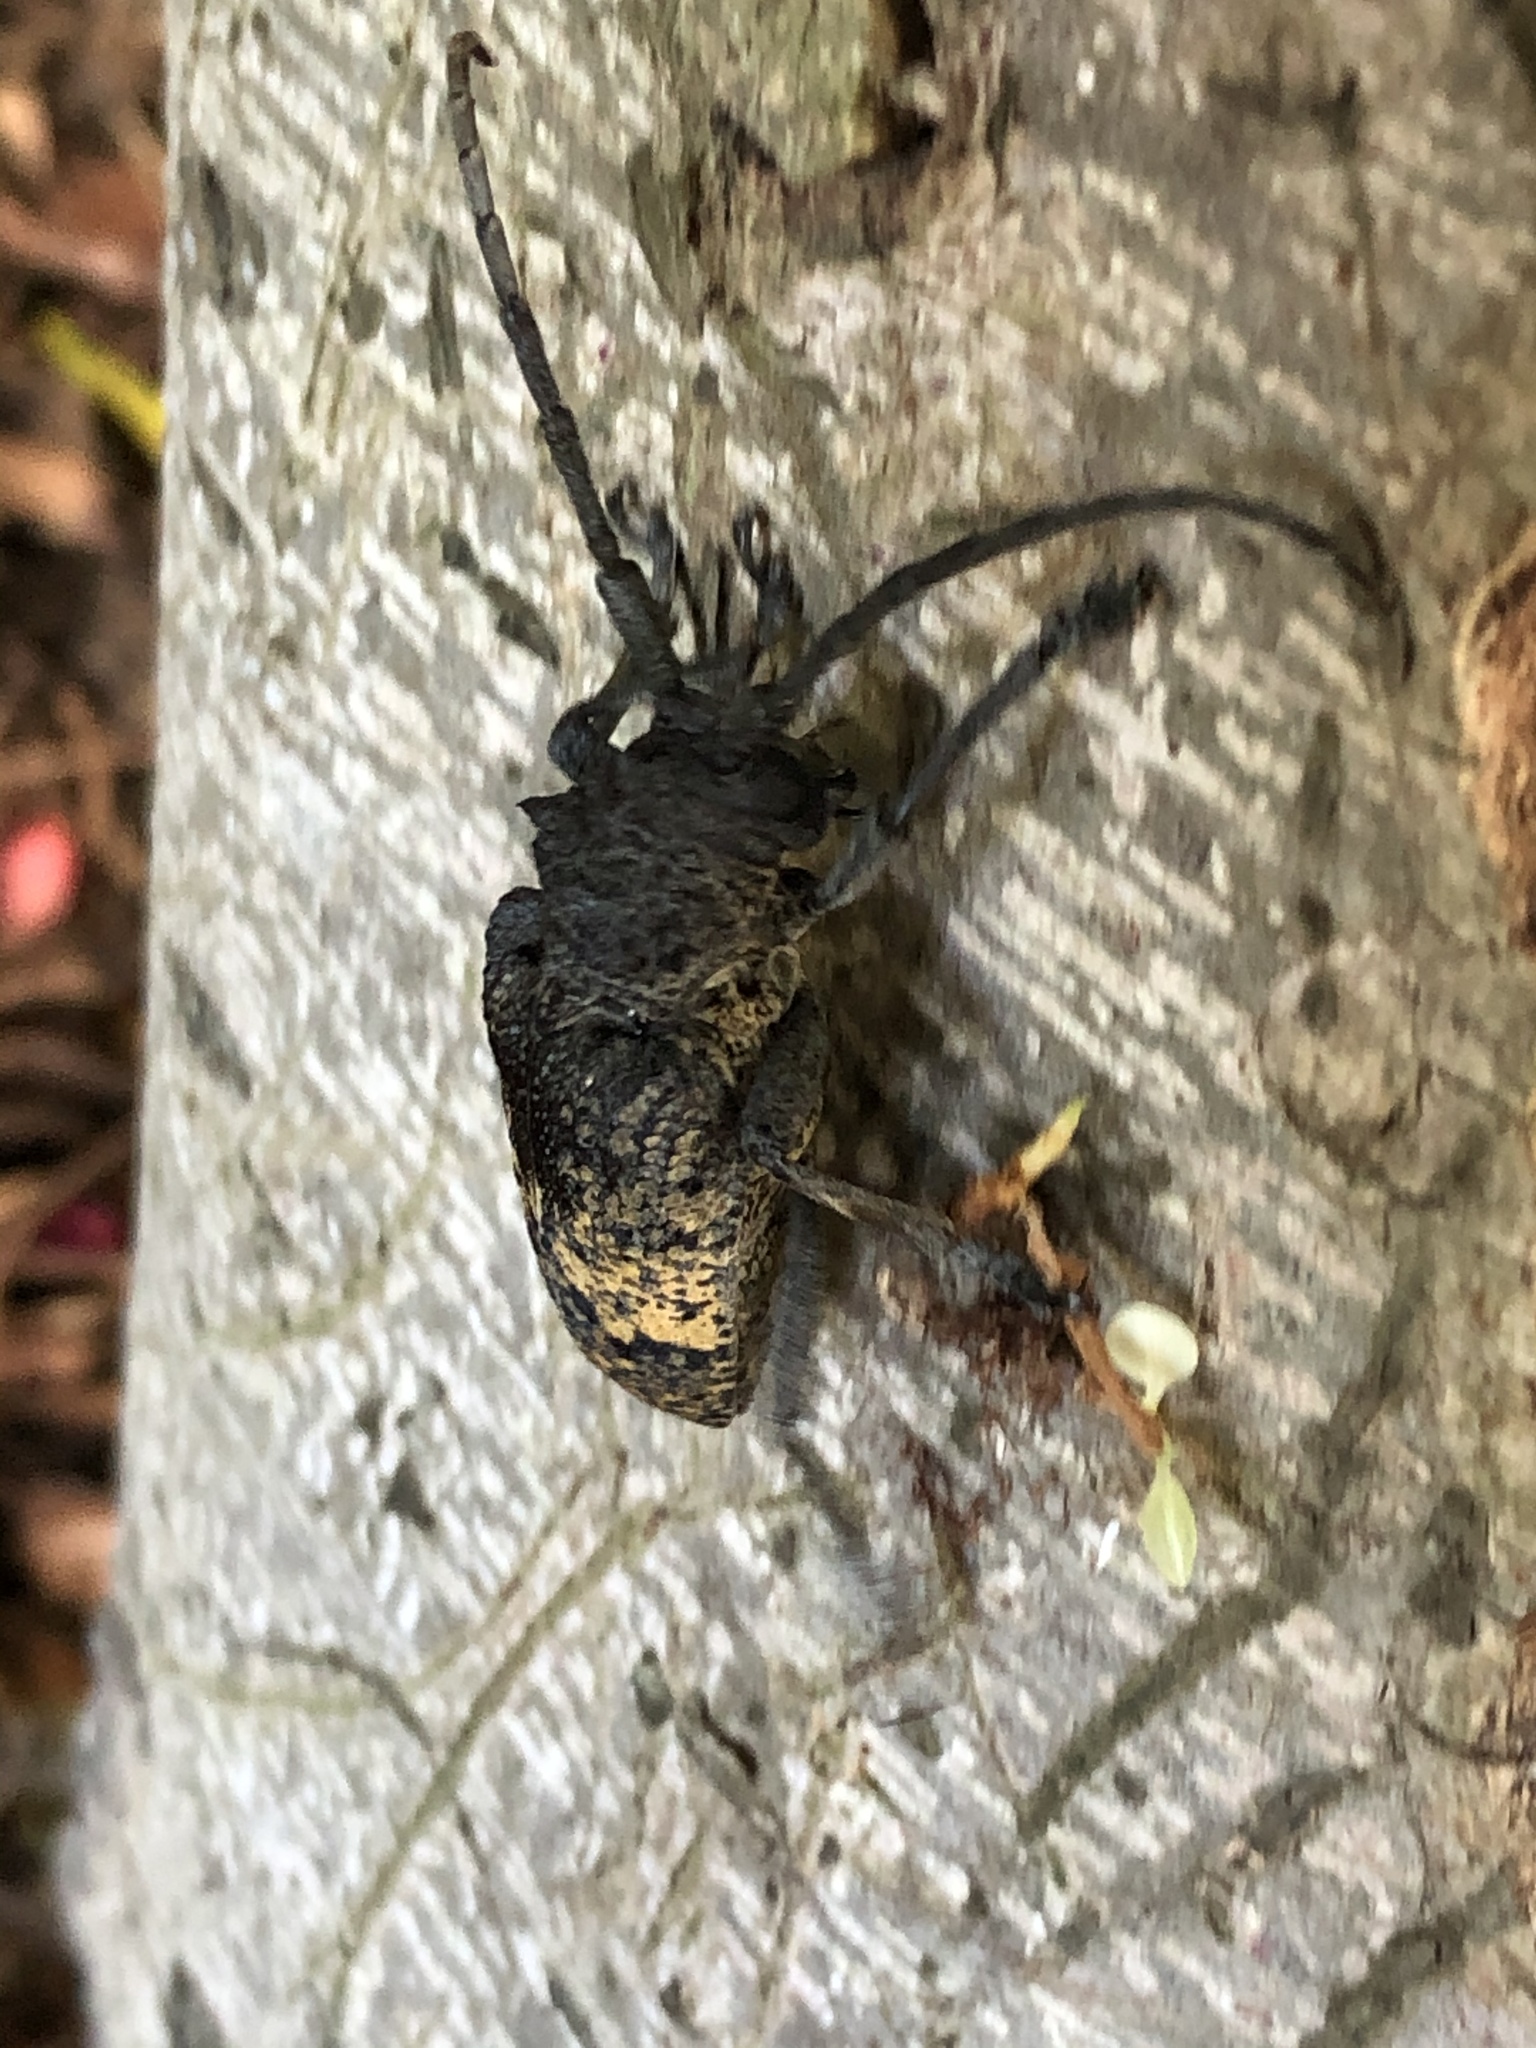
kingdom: Animalia
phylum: Arthropoda
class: Insecta
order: Coleoptera
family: Cerambycidae
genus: Phryneta
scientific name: Phryneta spinator
